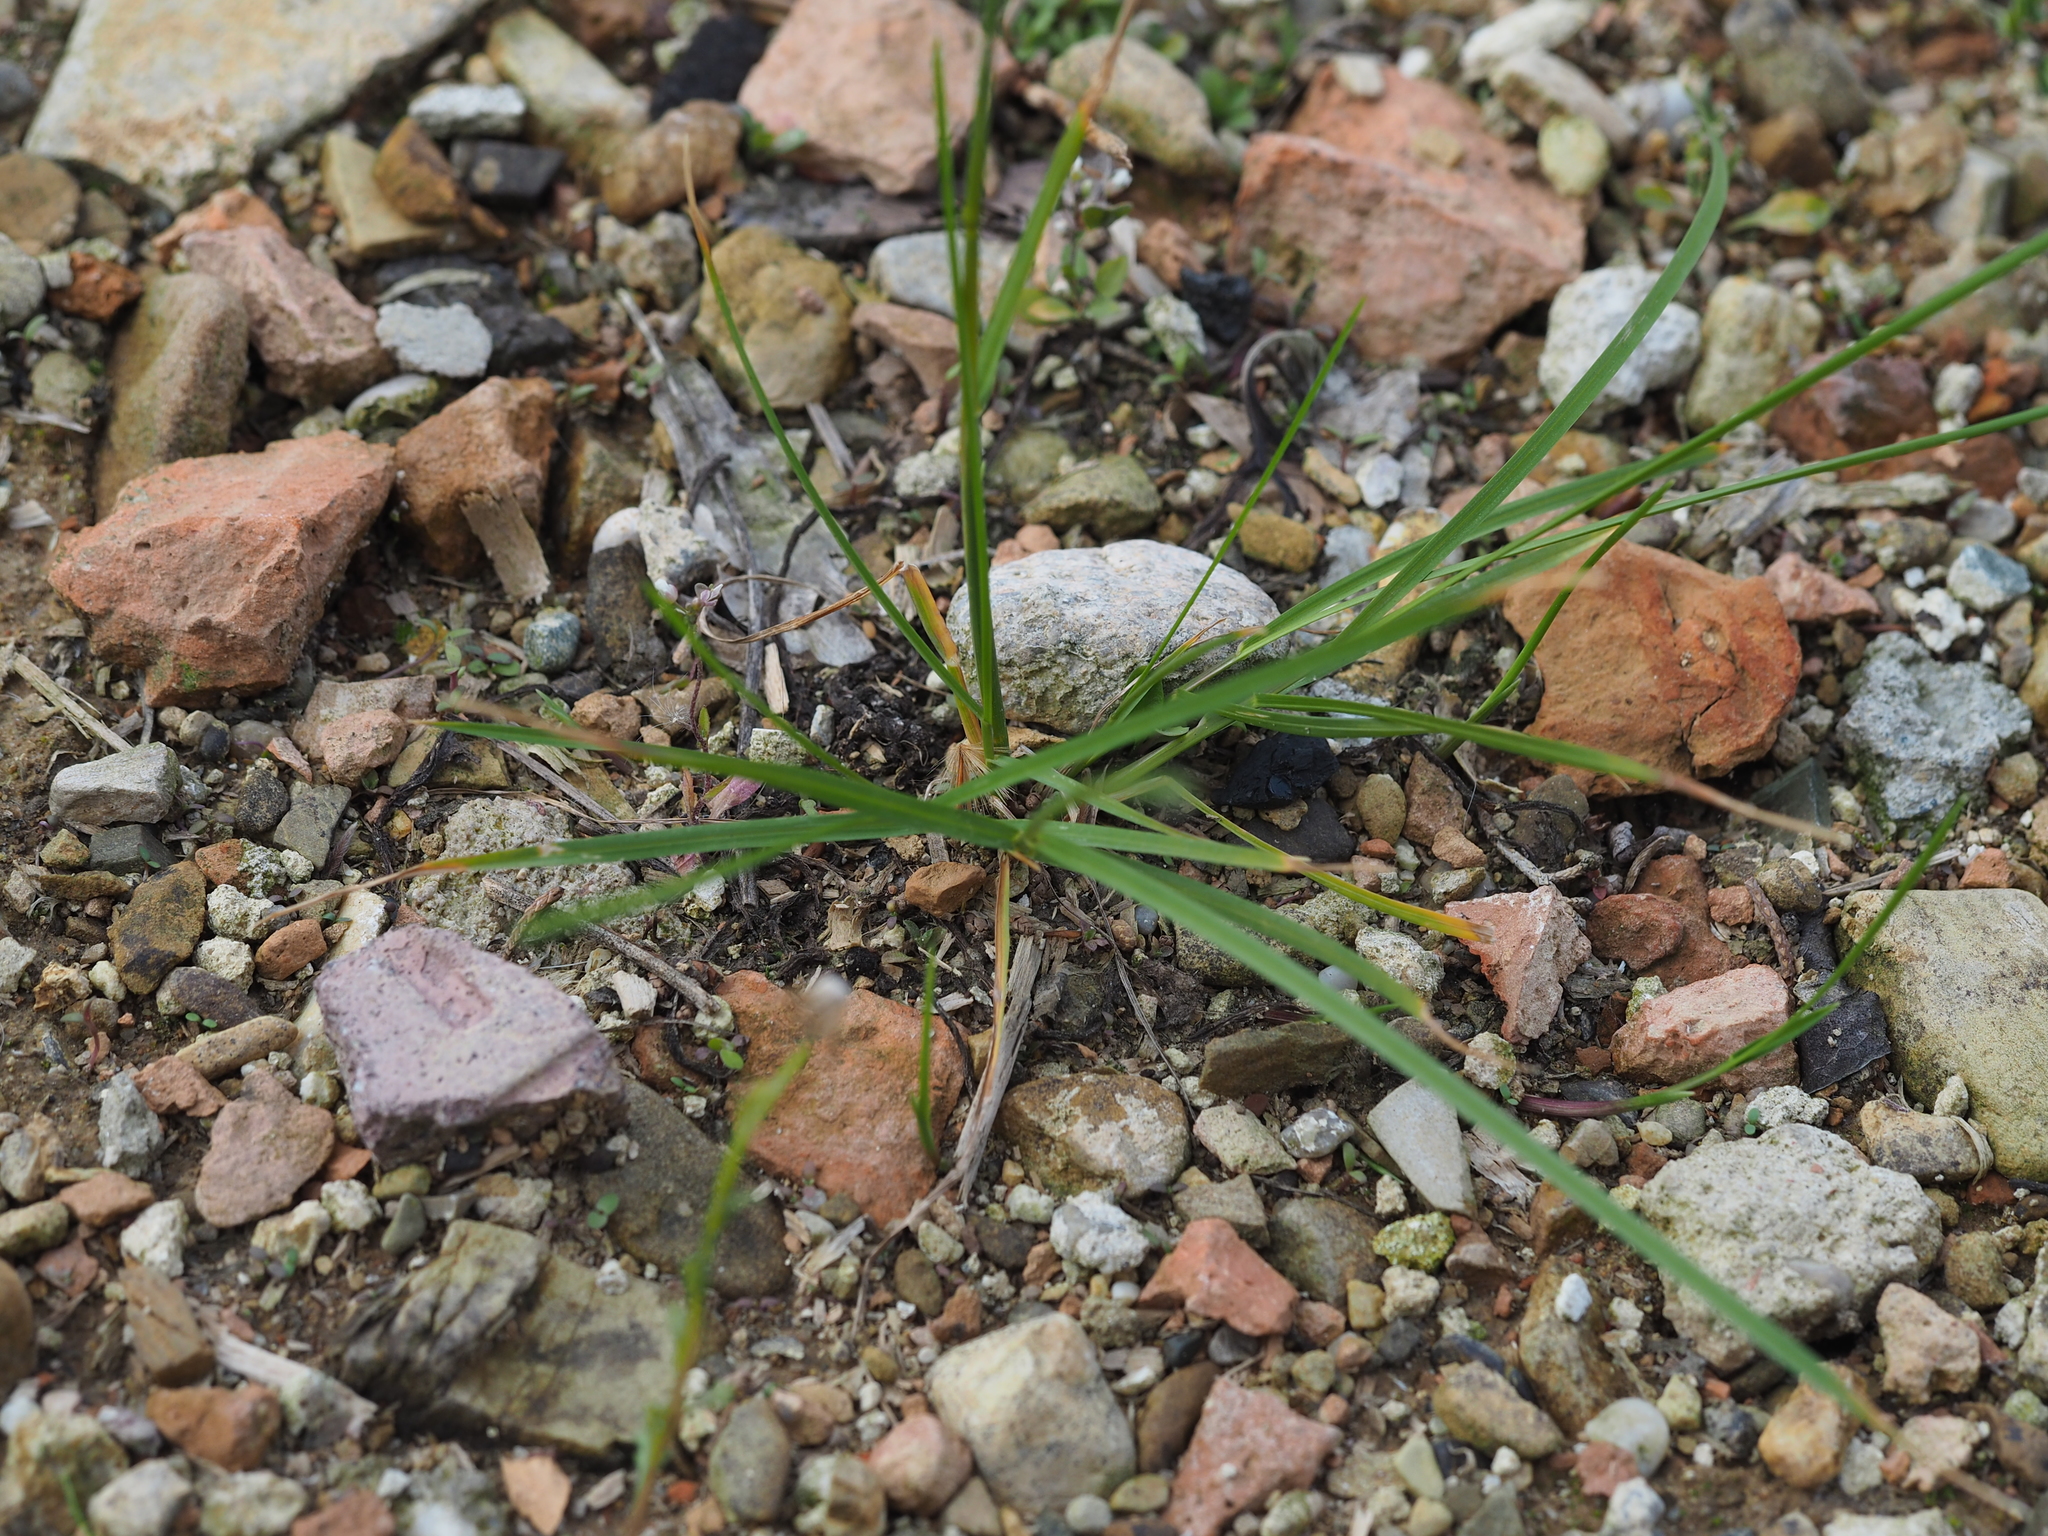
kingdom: Plantae
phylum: Tracheophyta
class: Liliopsida
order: Poales
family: Poaceae
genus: Poa
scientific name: Poa pratensis
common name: Kentucky bluegrass
